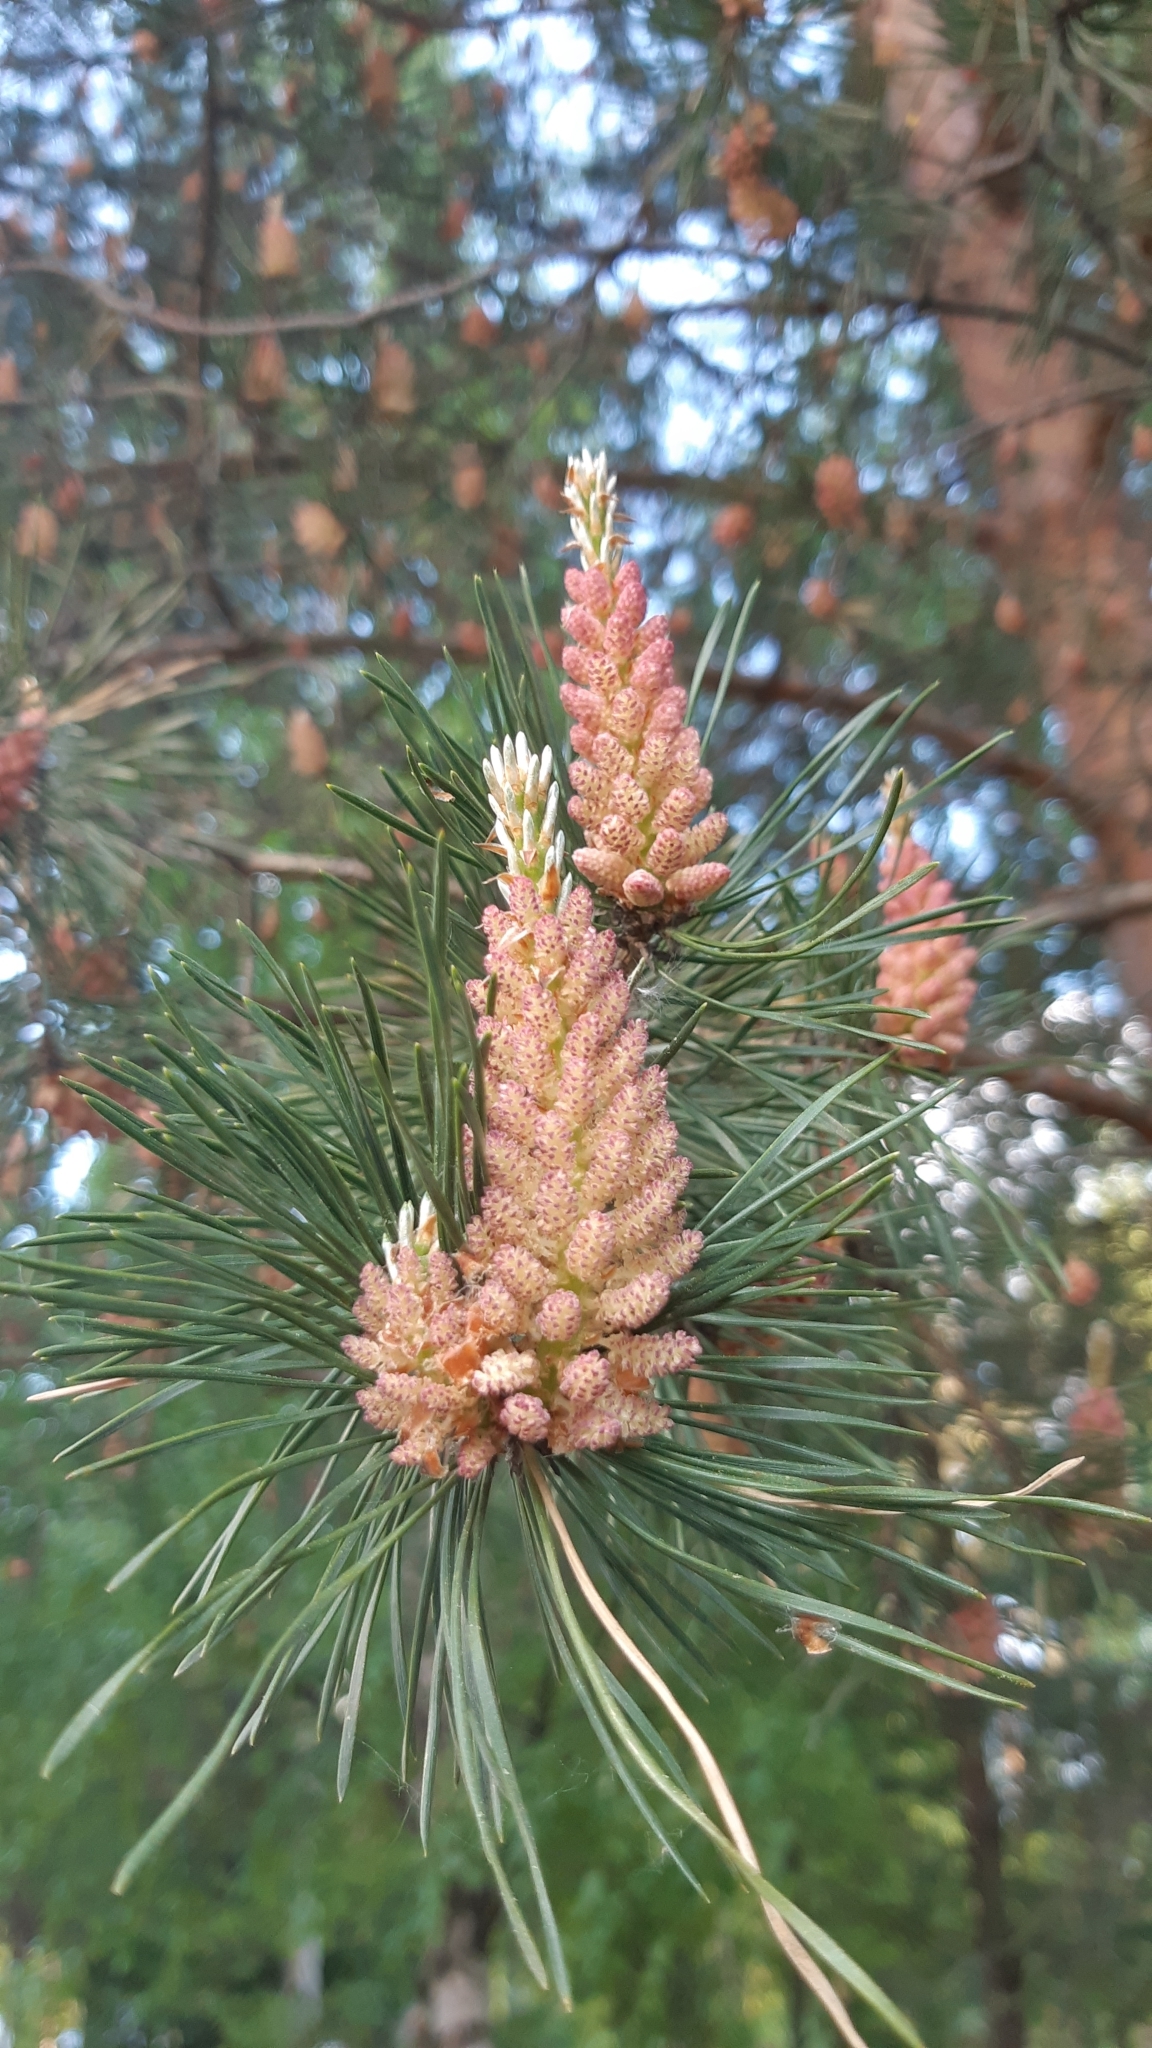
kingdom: Plantae
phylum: Tracheophyta
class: Pinopsida
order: Pinales
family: Pinaceae
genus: Pinus
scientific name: Pinus sylvestris
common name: Scots pine
